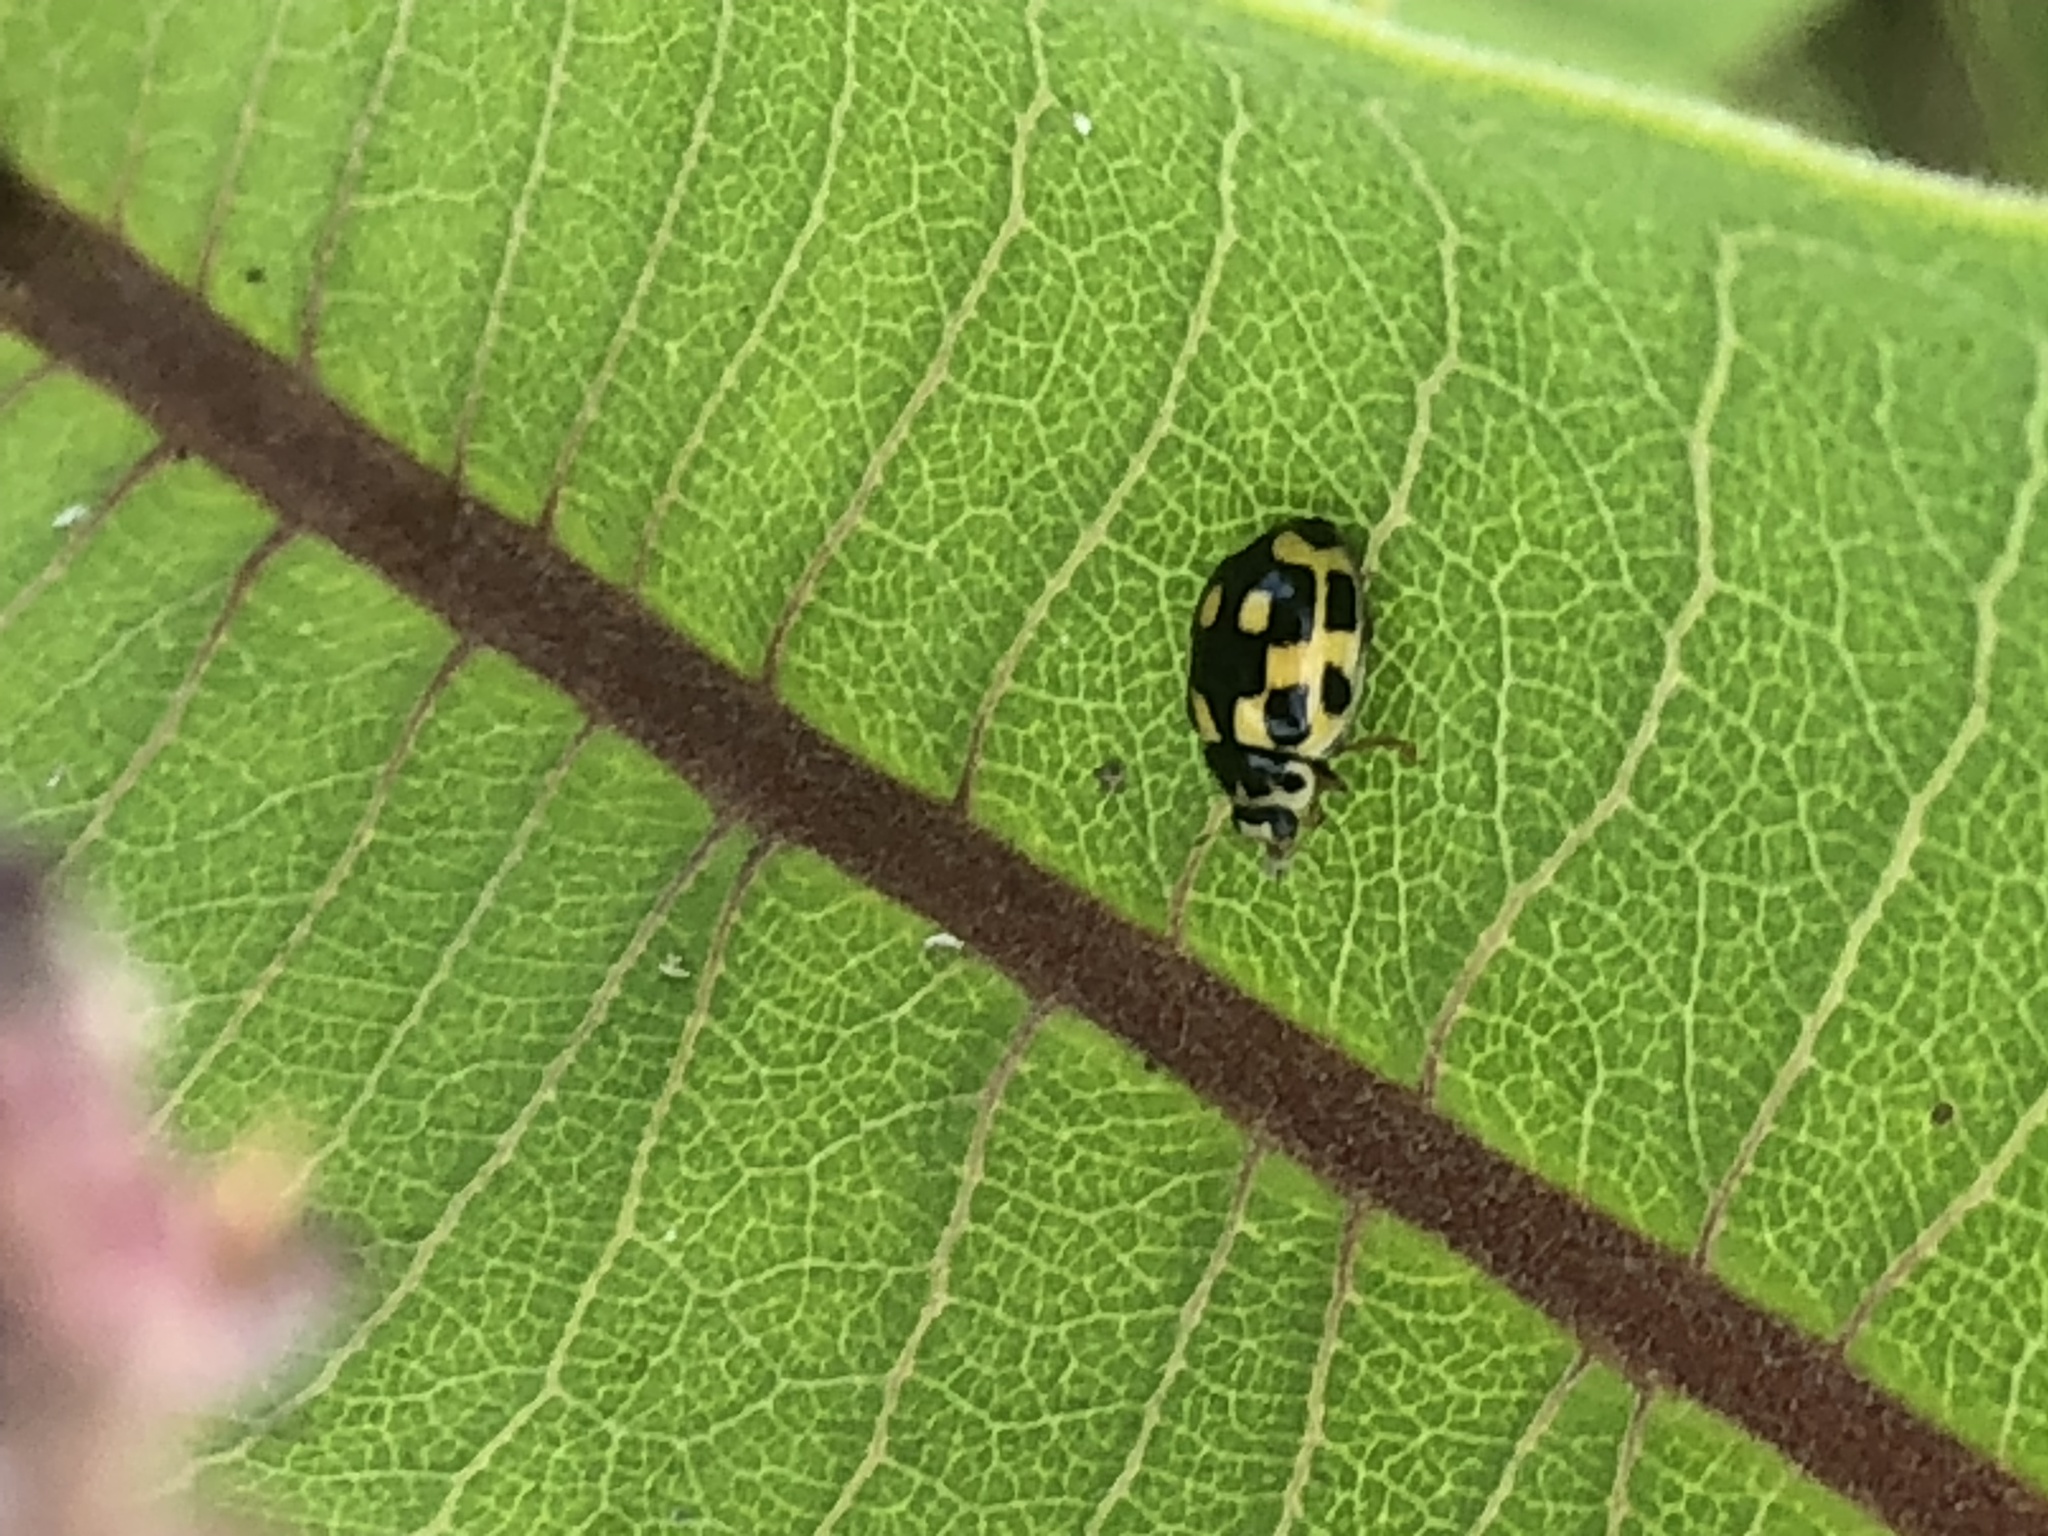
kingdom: Animalia
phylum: Arthropoda
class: Insecta
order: Coleoptera
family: Coccinellidae
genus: Propylaea
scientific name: Propylaea quatuordecimpunctata
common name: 14-spotted ladybird beetle
